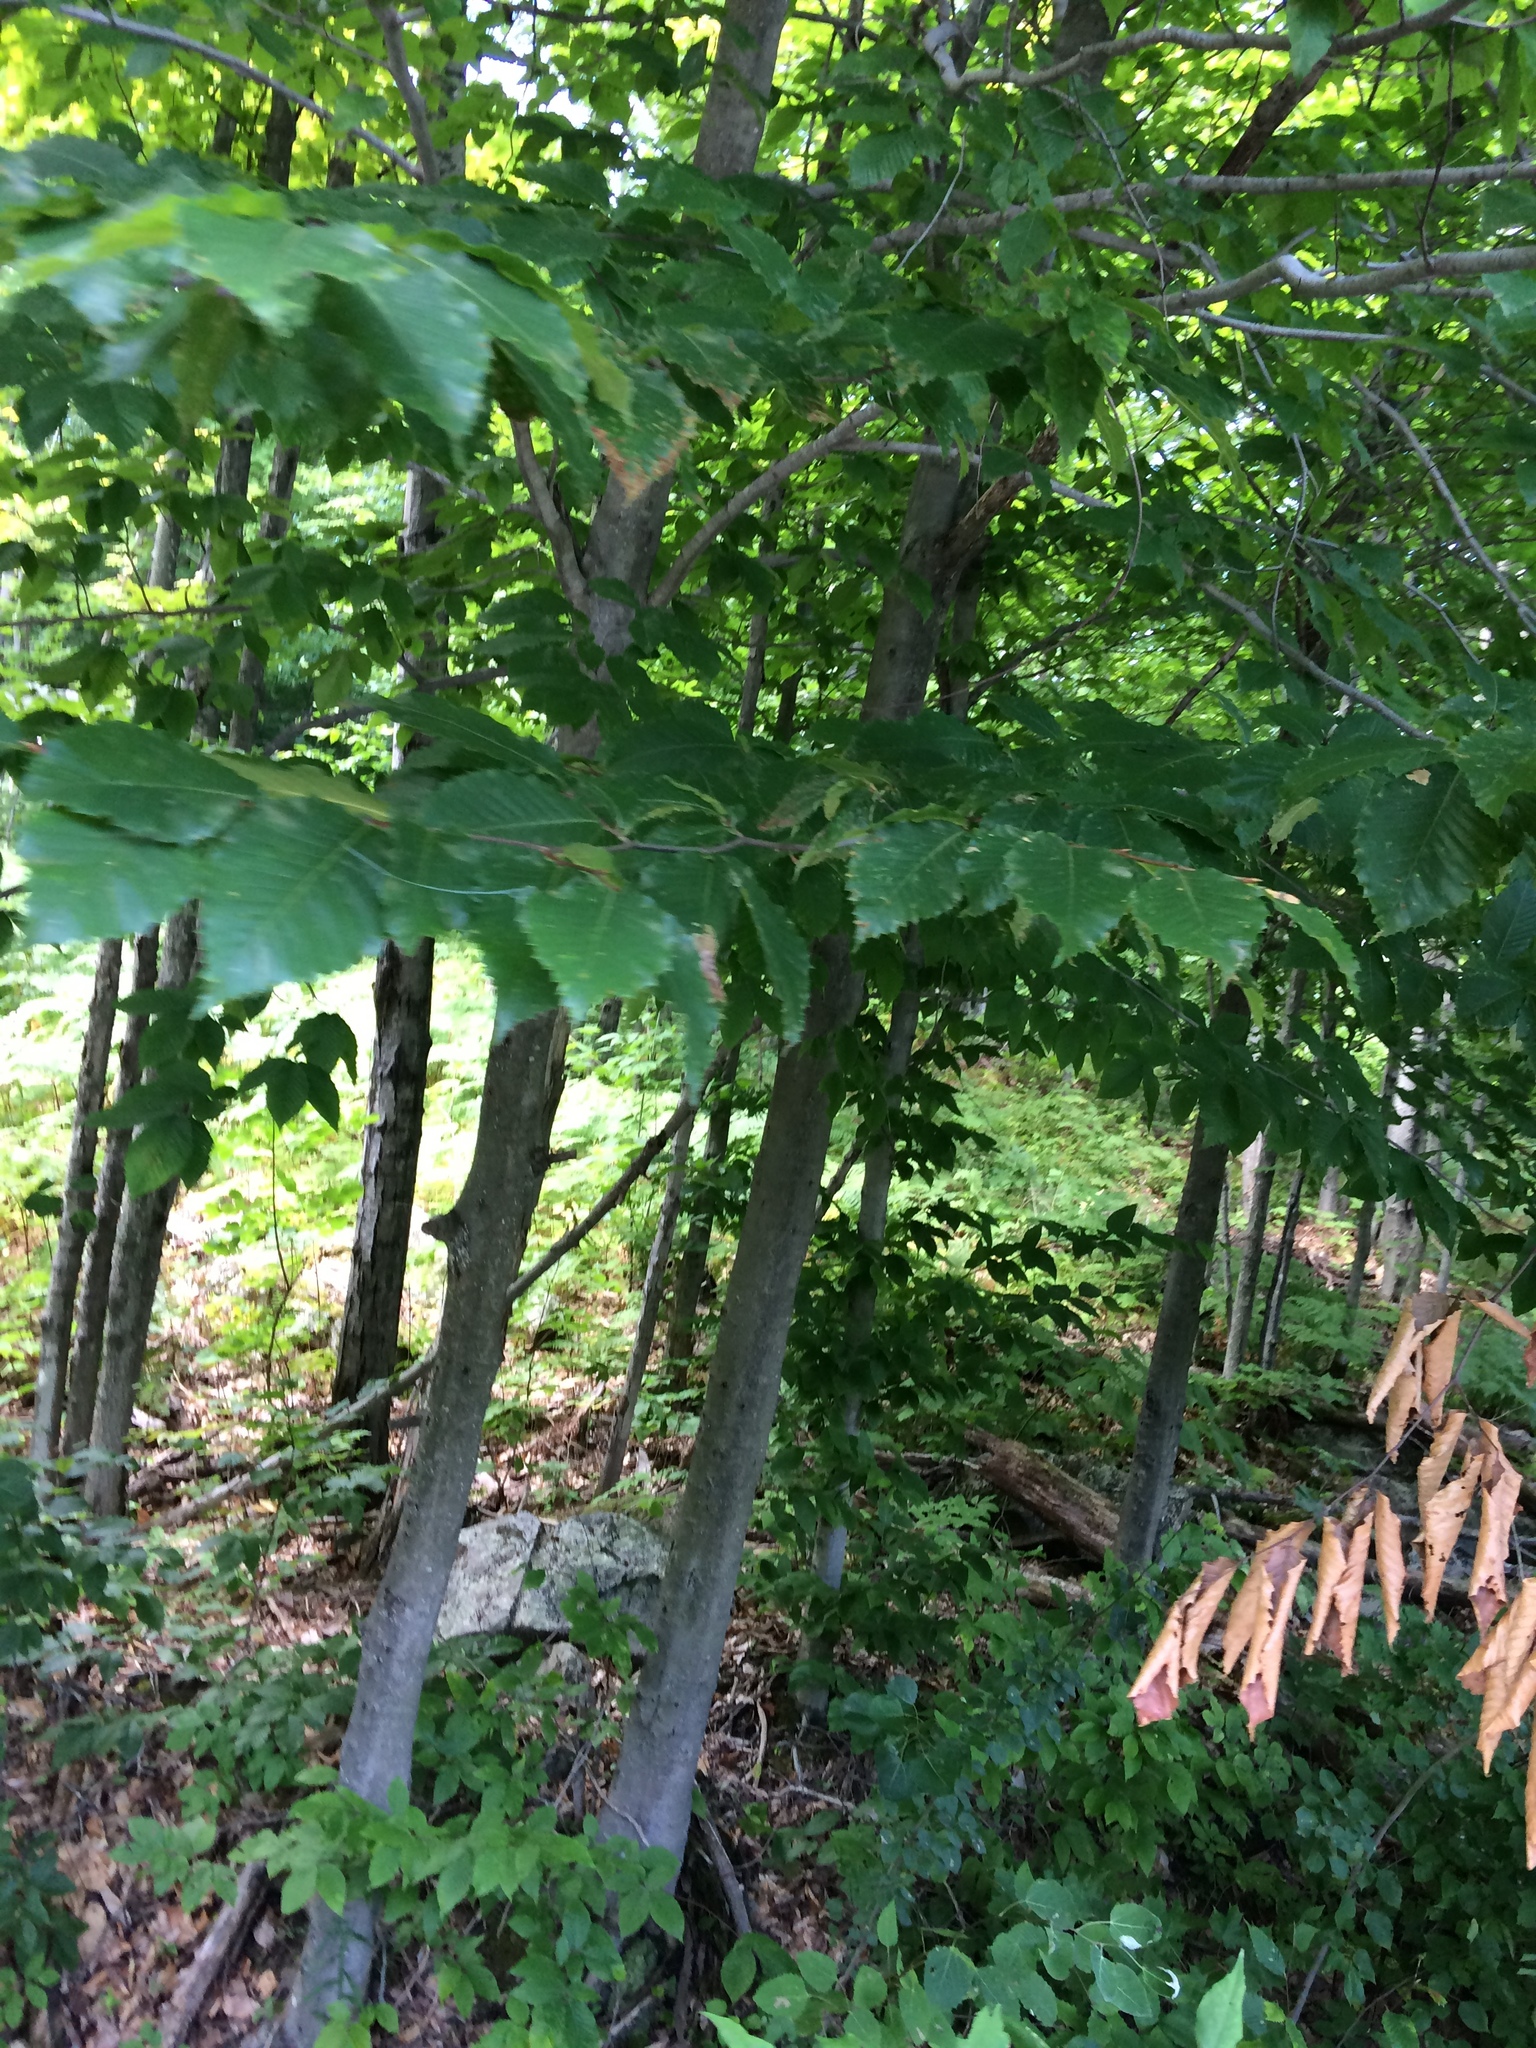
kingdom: Plantae
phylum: Tracheophyta
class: Magnoliopsida
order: Fagales
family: Fagaceae
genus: Fagus
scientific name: Fagus grandifolia
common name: American beech
